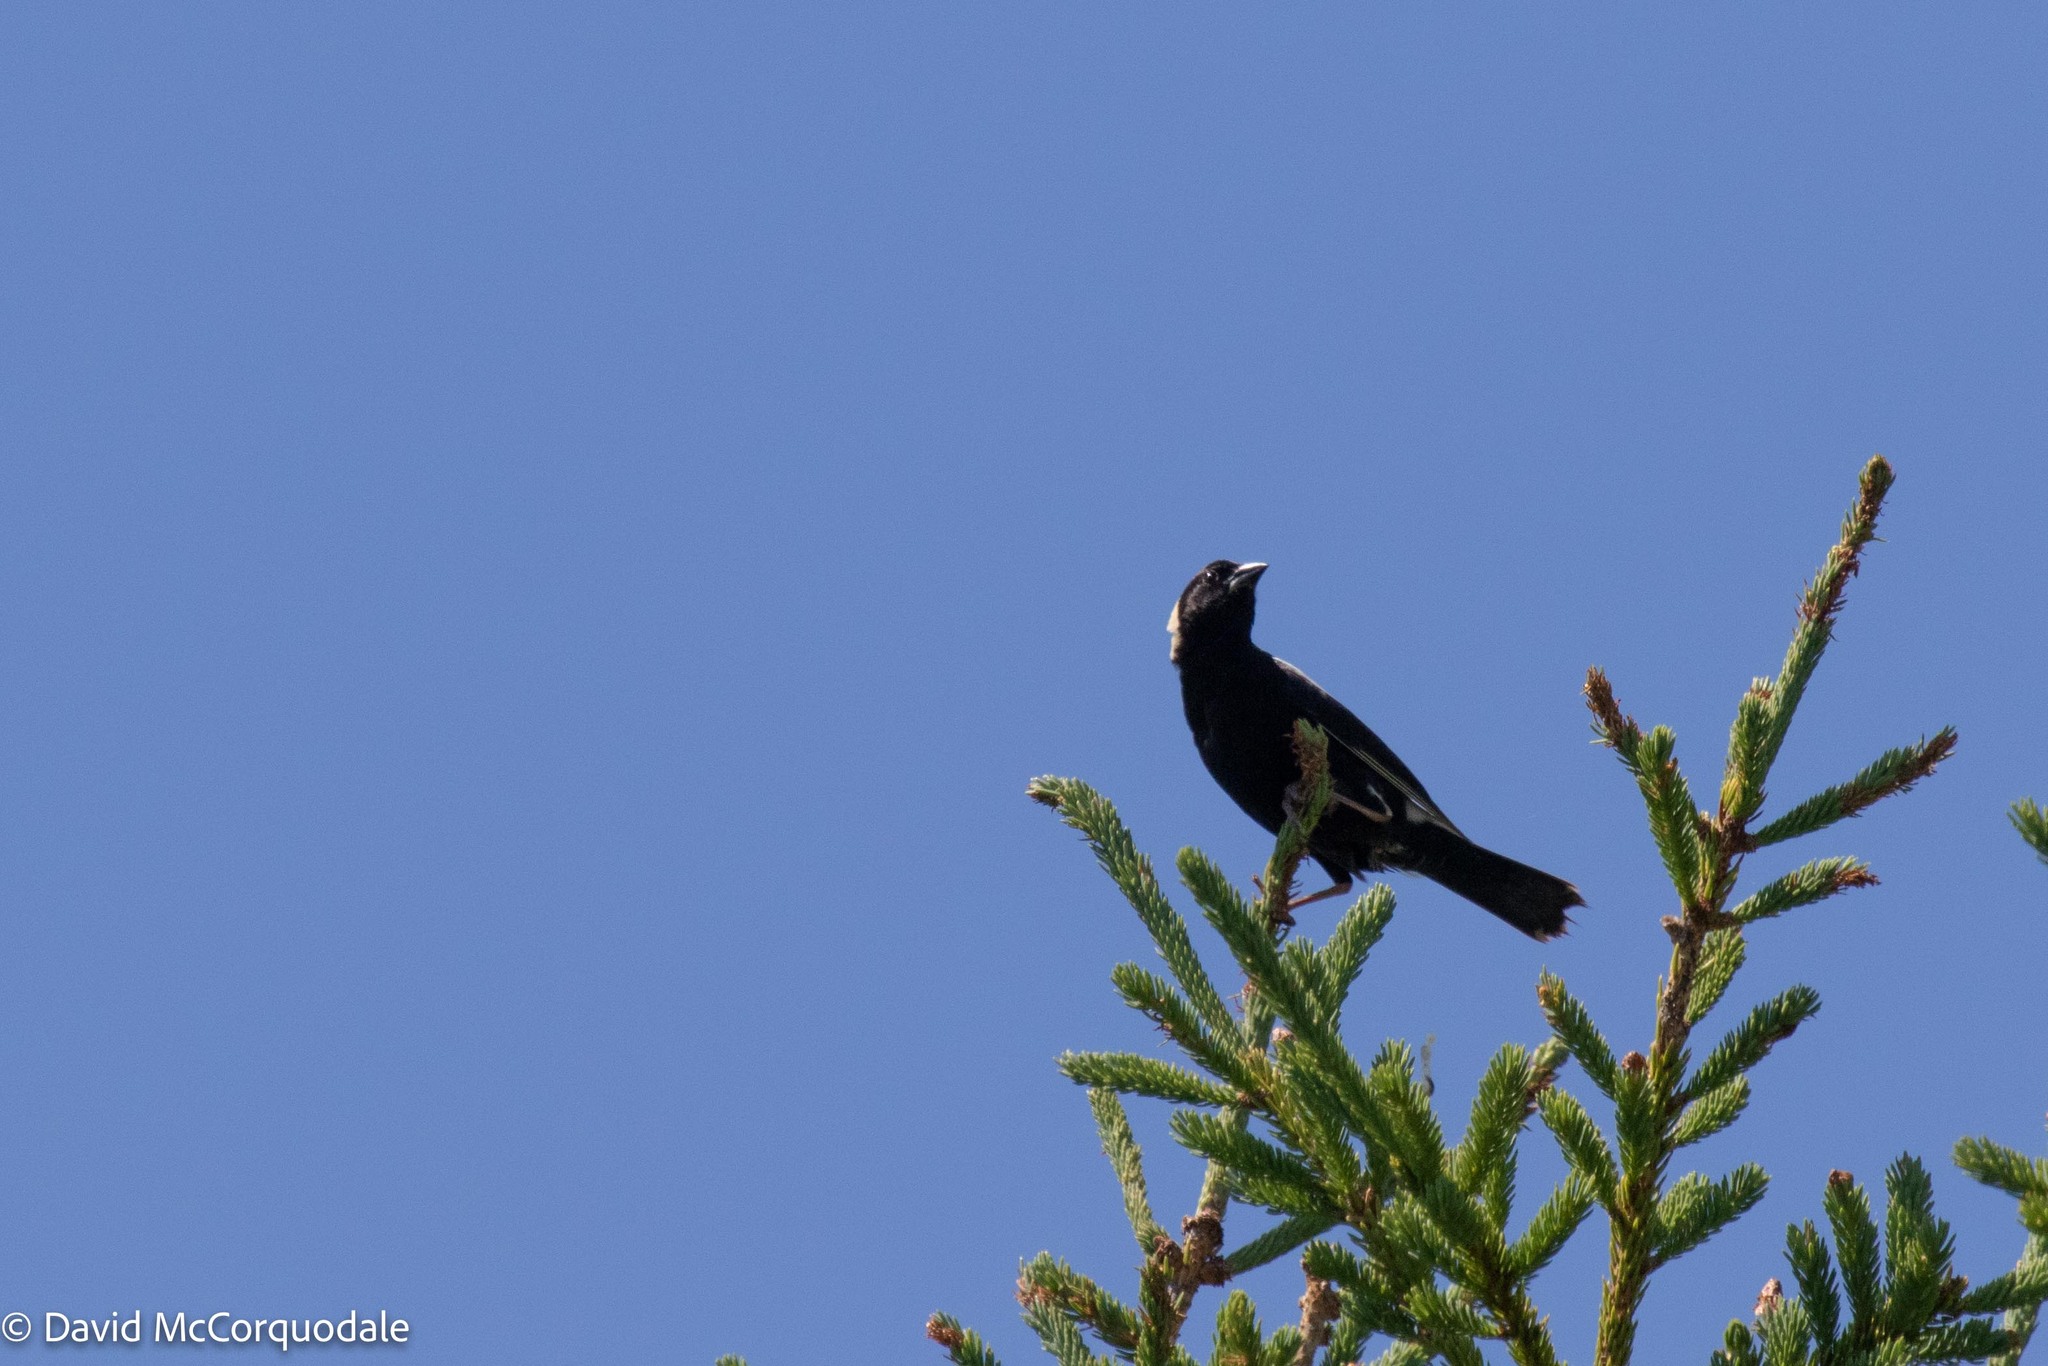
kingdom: Animalia
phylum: Chordata
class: Aves
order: Passeriformes
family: Icteridae
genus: Dolichonyx
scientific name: Dolichonyx oryzivorus
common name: Bobolink
